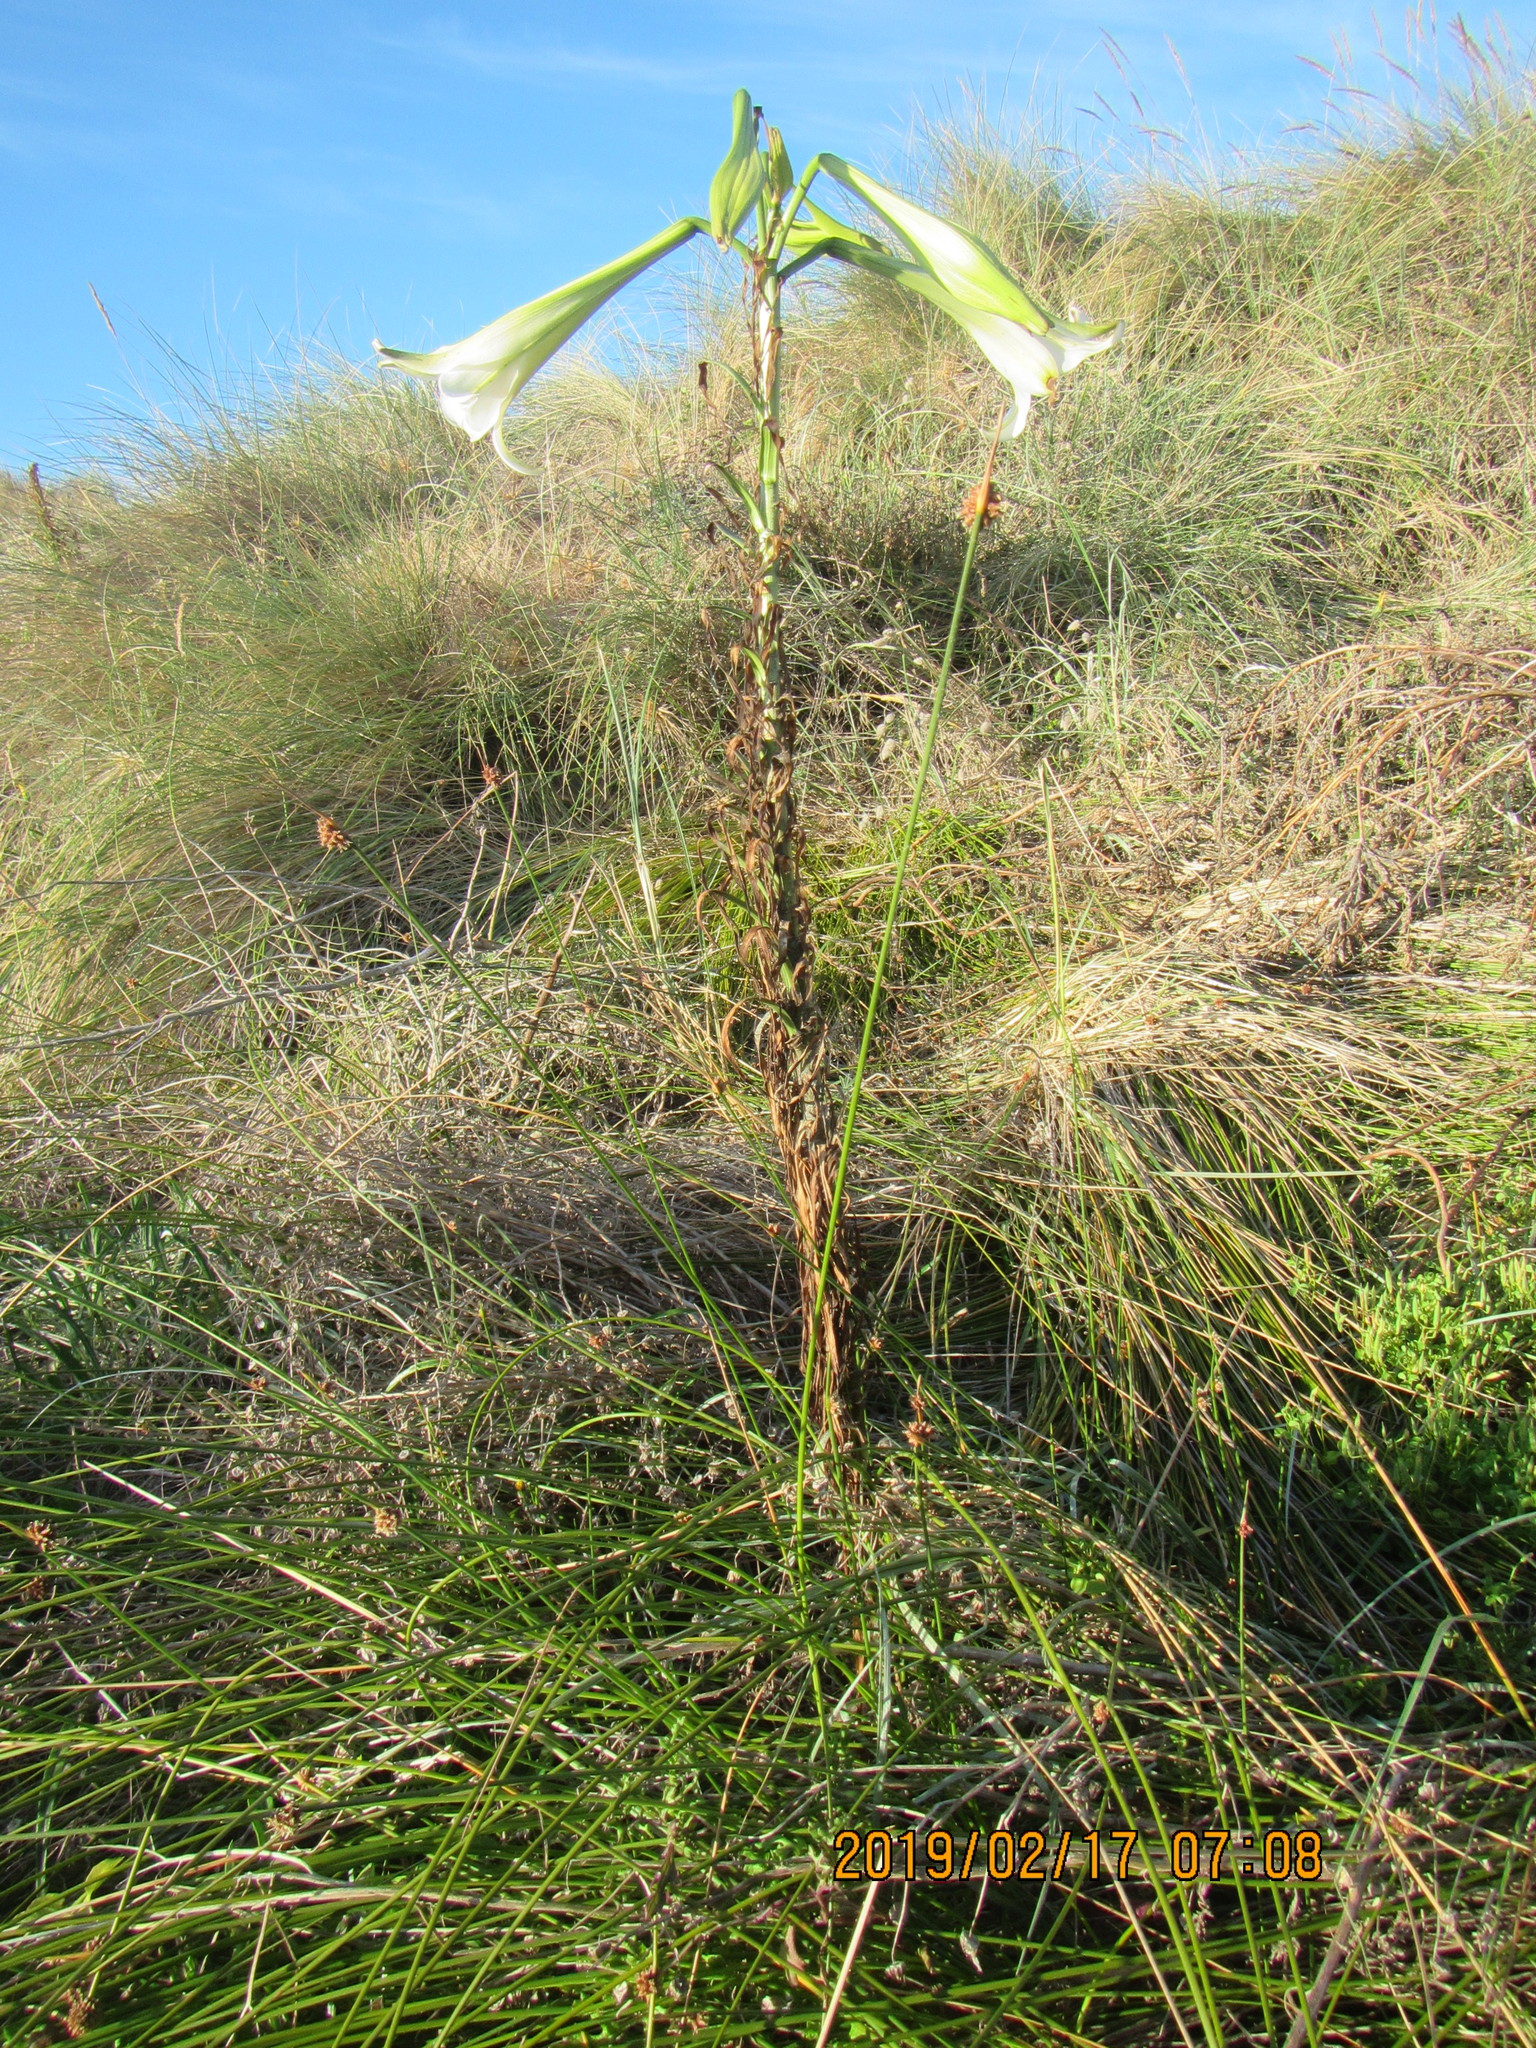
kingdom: Plantae
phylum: Tracheophyta
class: Liliopsida
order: Liliales
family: Liliaceae
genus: Lilium
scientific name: Lilium formosanum
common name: Formosa lily
